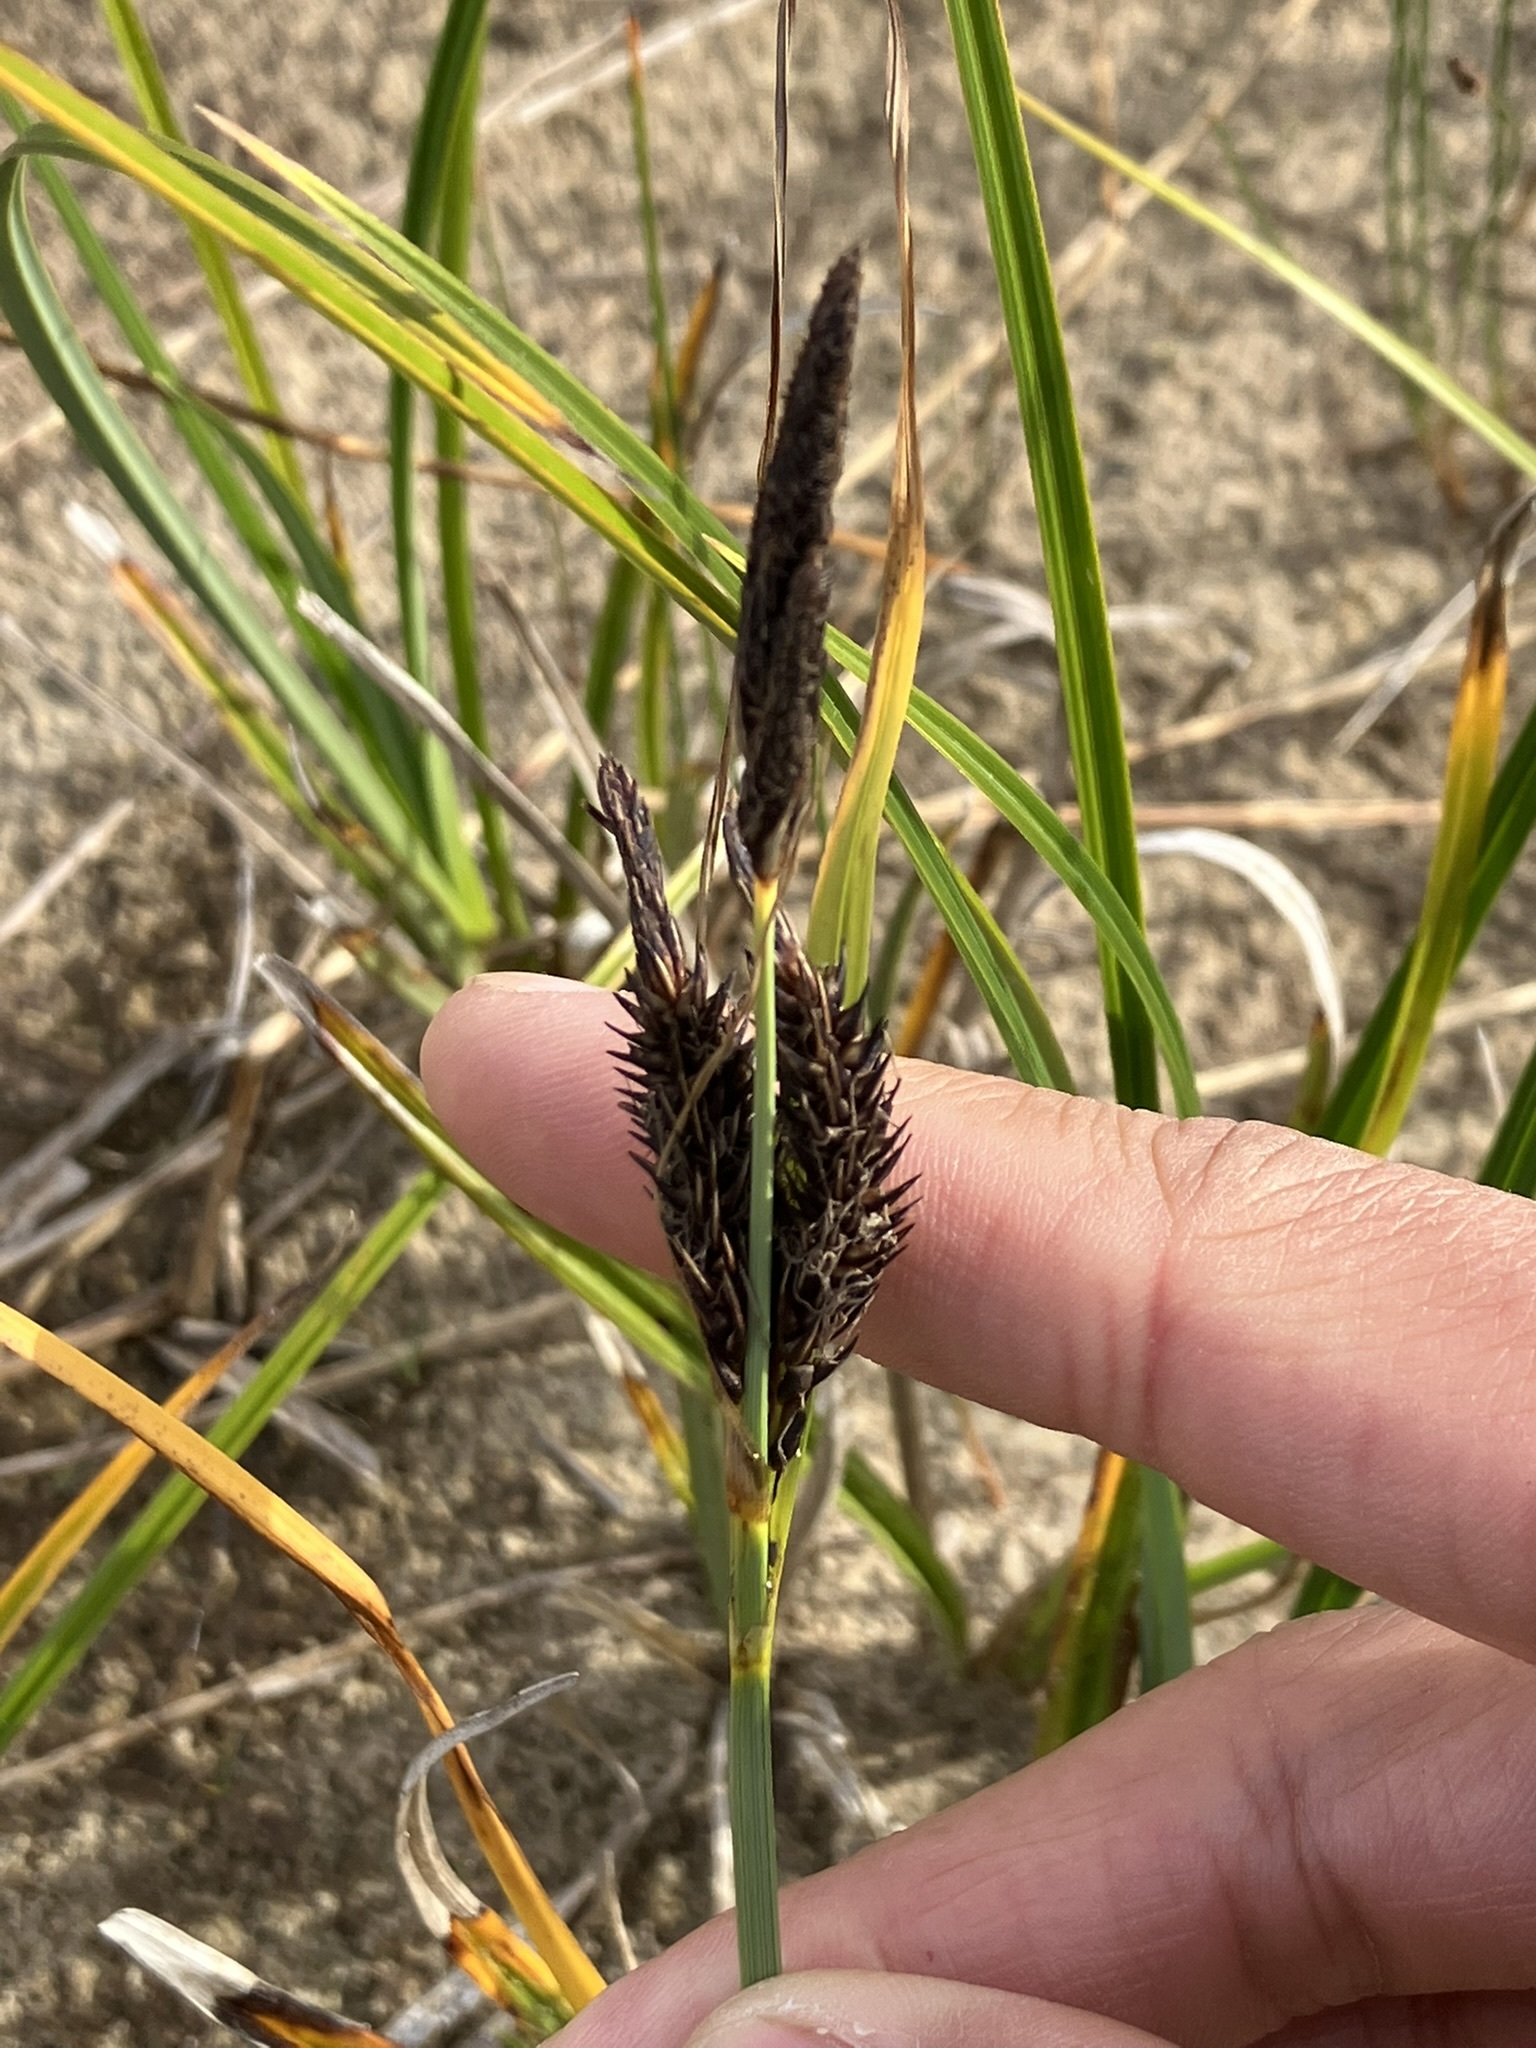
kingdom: Plantae
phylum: Tracheophyta
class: Liliopsida
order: Poales
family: Cyperaceae
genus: Carex
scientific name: Carex obnupta
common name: Slough sedge
